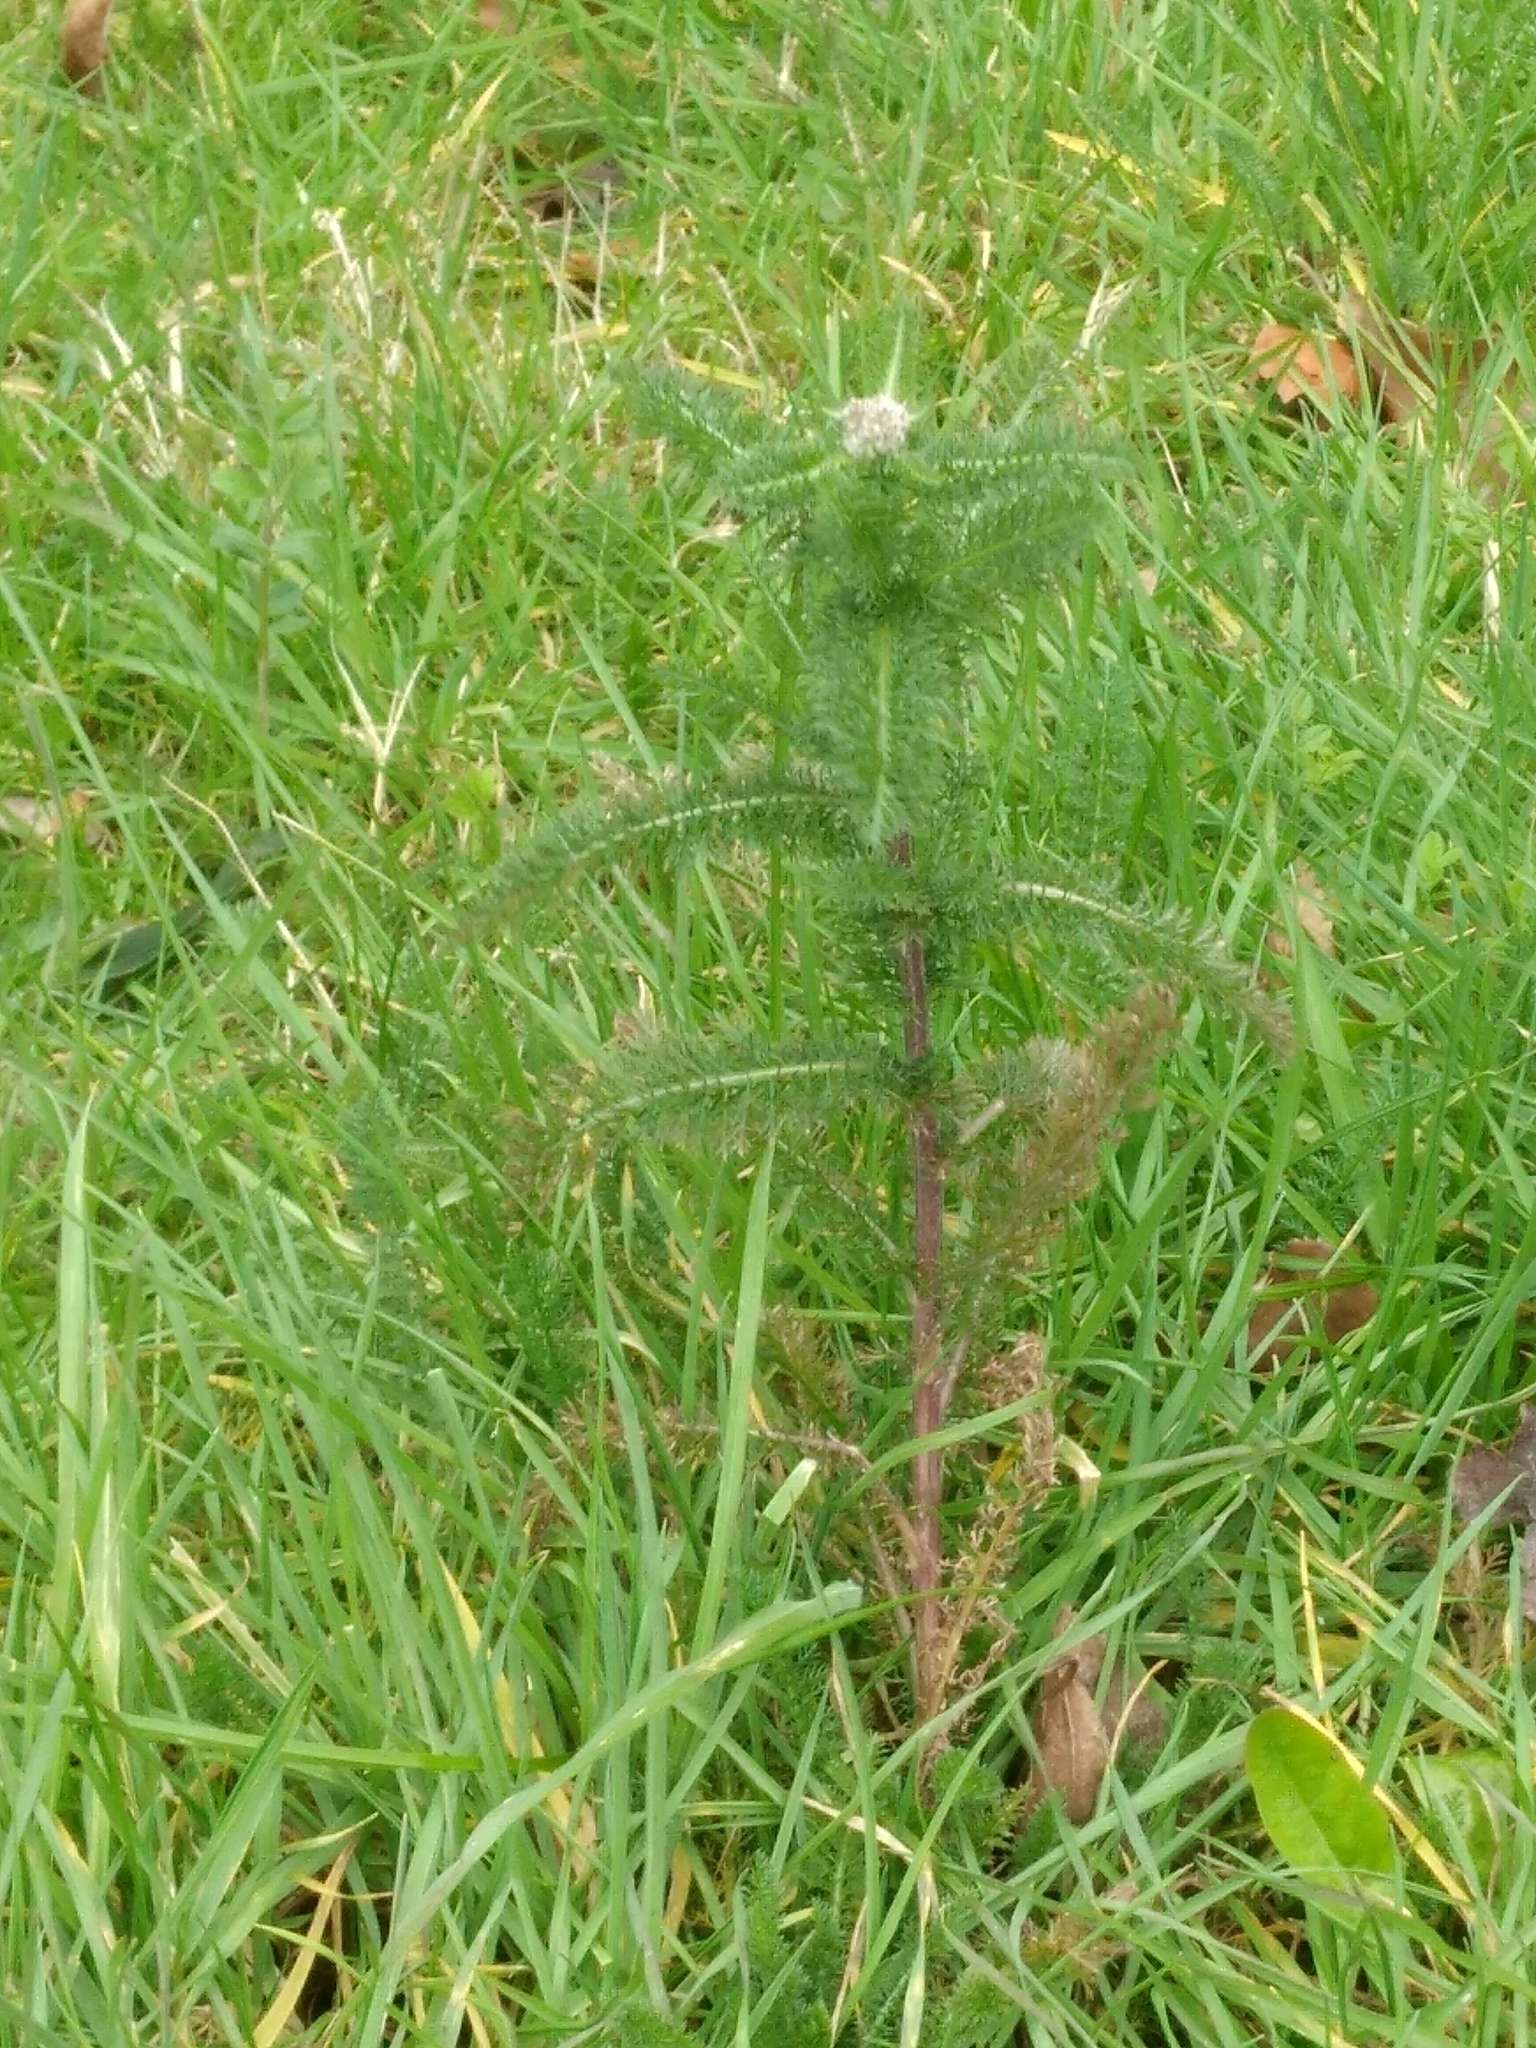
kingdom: Plantae
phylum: Tracheophyta
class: Magnoliopsida
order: Asterales
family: Asteraceae
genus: Achillea
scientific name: Achillea millefolium
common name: Yarrow
